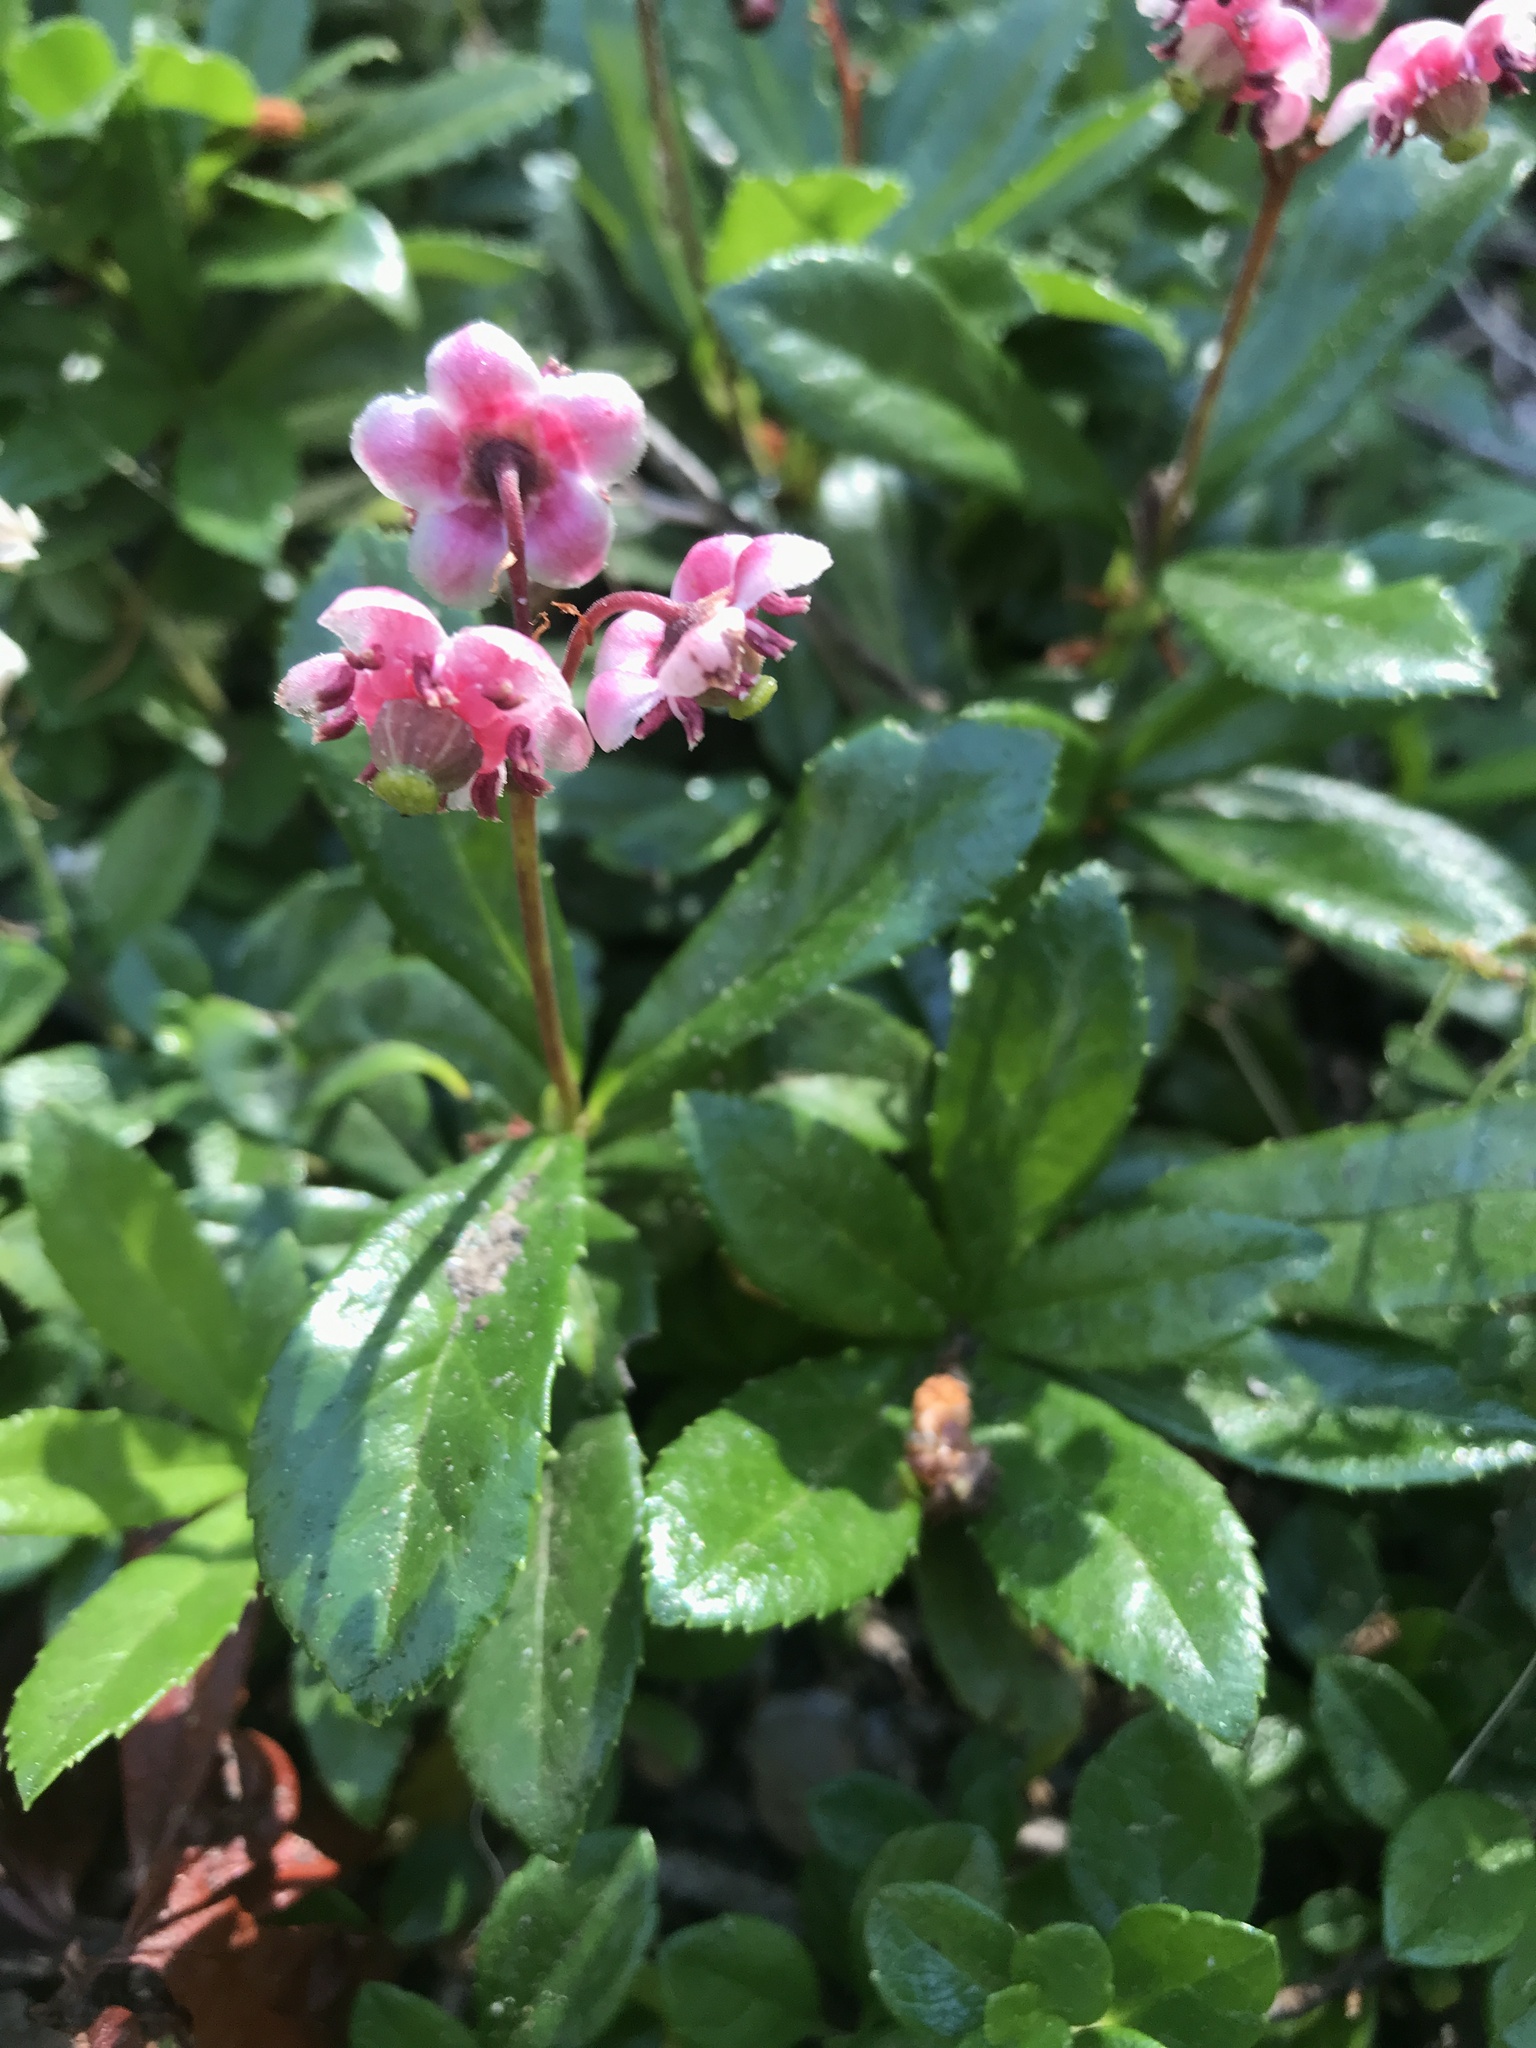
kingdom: Plantae
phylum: Tracheophyta
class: Magnoliopsida
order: Ericales
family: Ericaceae
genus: Chimaphila
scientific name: Chimaphila umbellata
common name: Pipsissewa
